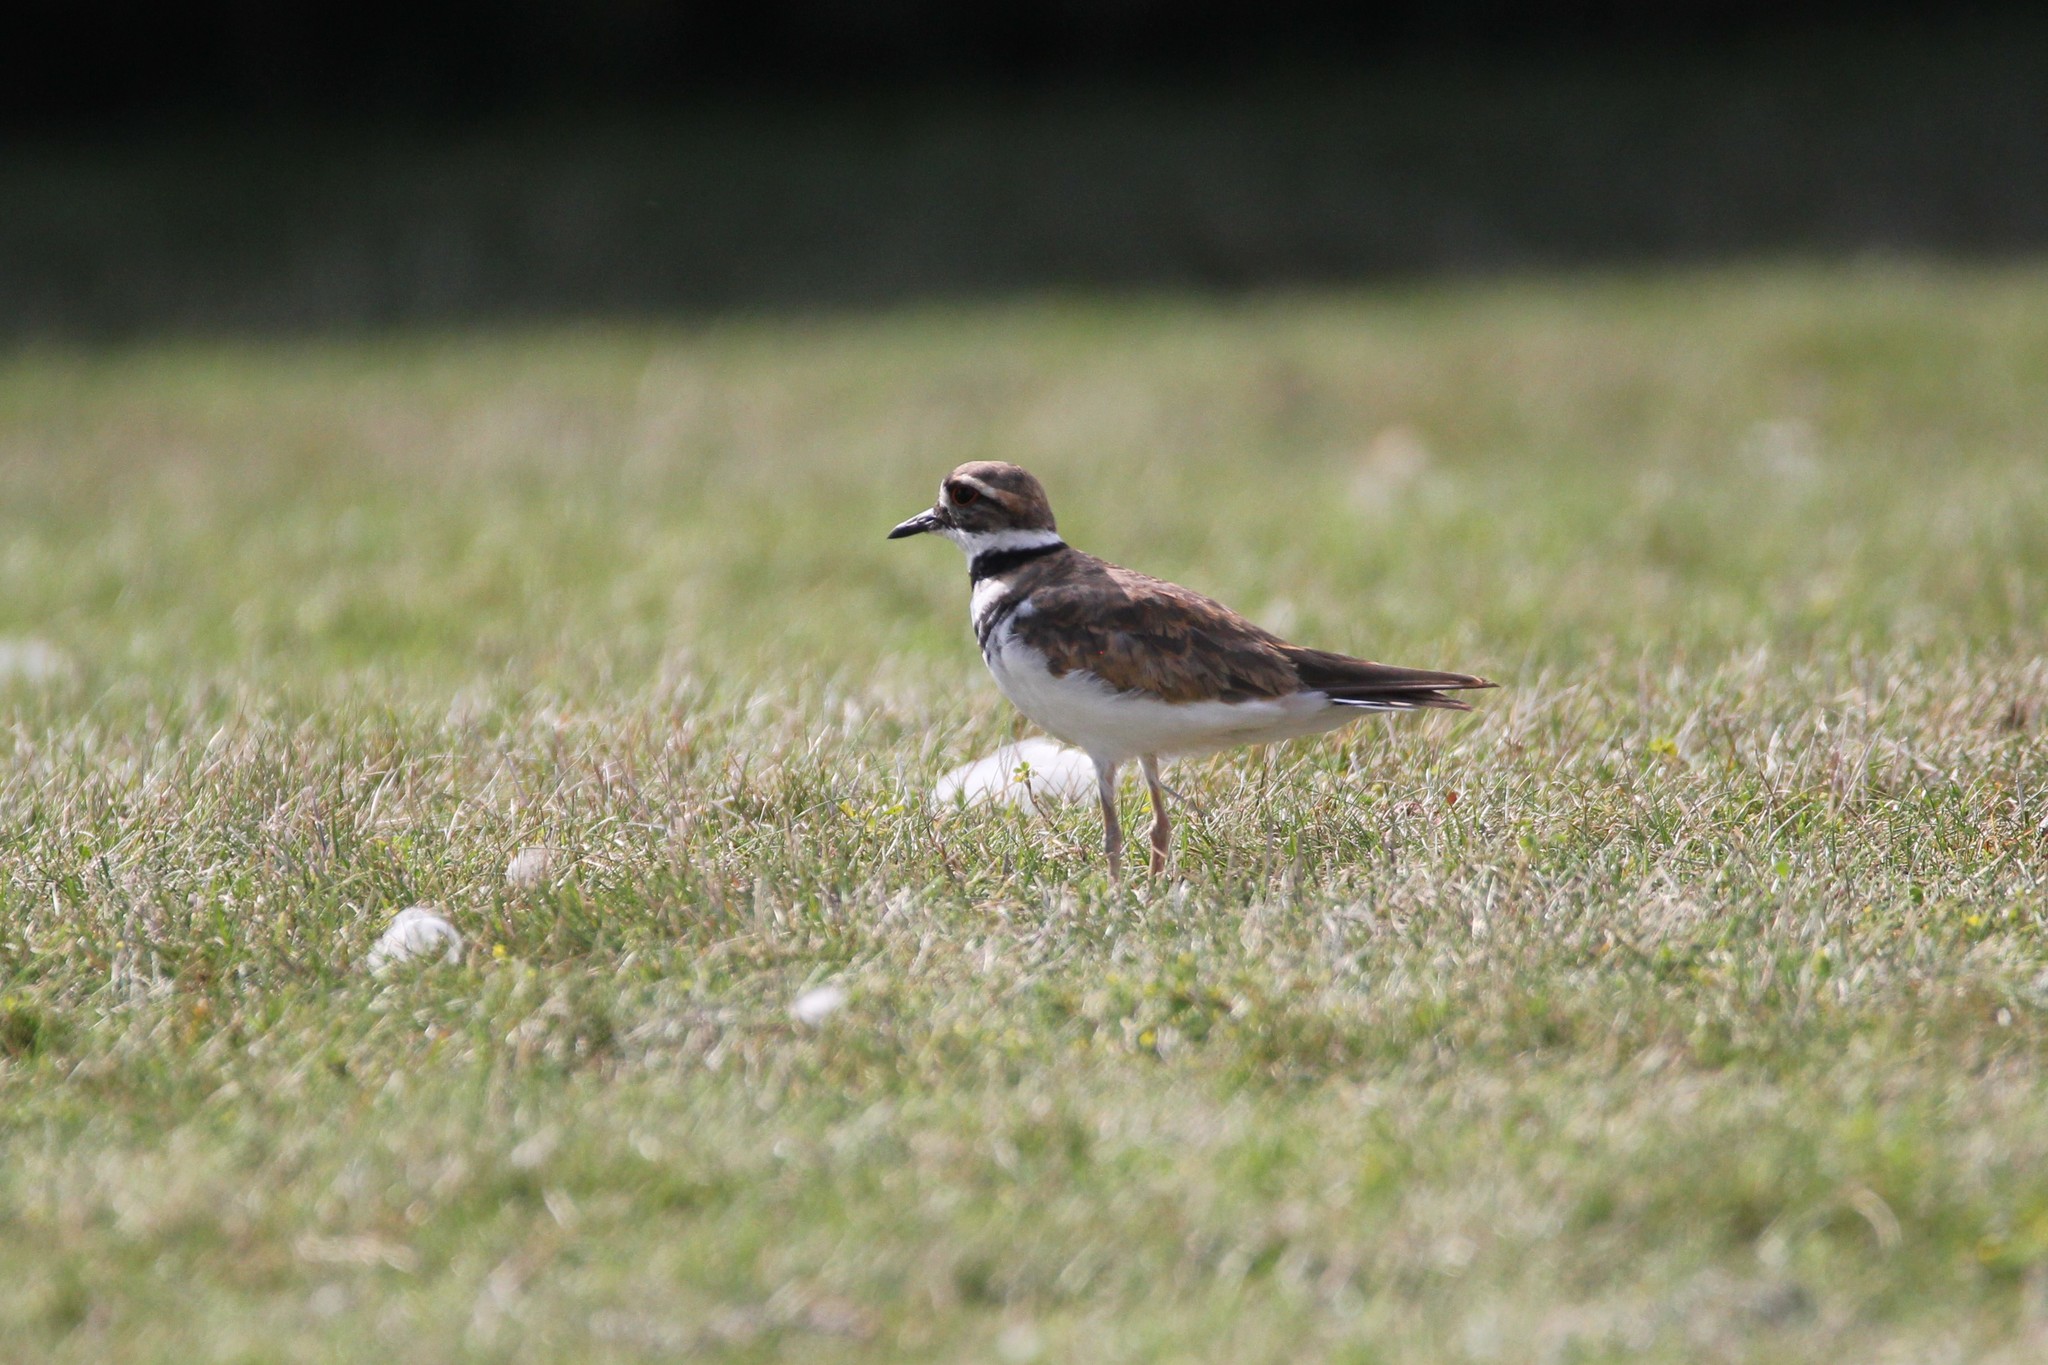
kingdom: Animalia
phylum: Chordata
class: Aves
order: Charadriiformes
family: Charadriidae
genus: Charadrius
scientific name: Charadrius vociferus
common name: Killdeer
